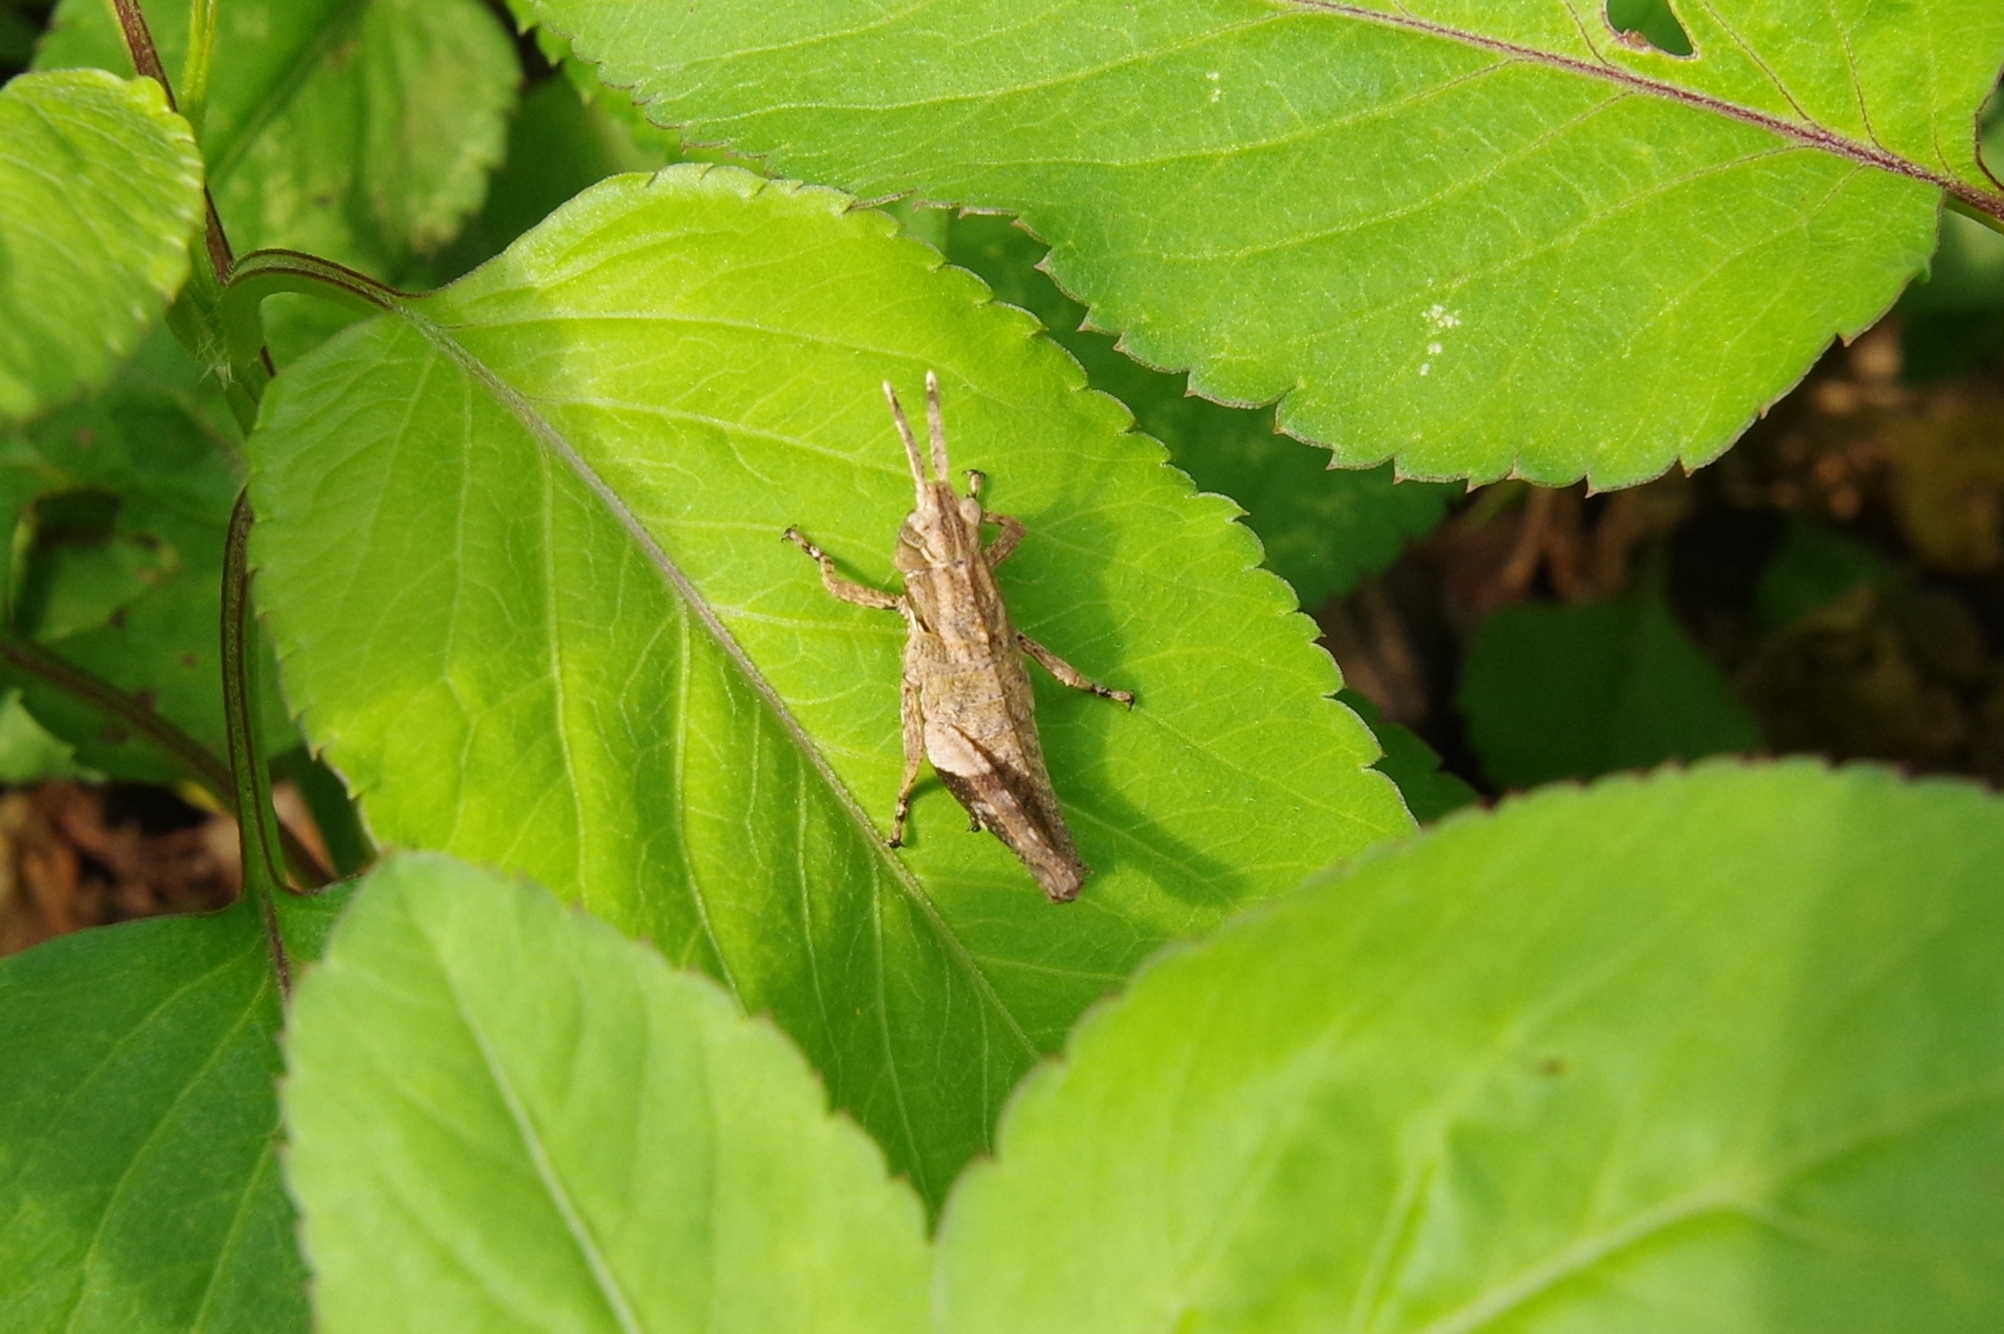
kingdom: Animalia
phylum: Arthropoda
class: Insecta
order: Orthoptera
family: Acrididae
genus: Traulia
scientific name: Traulia ornata
